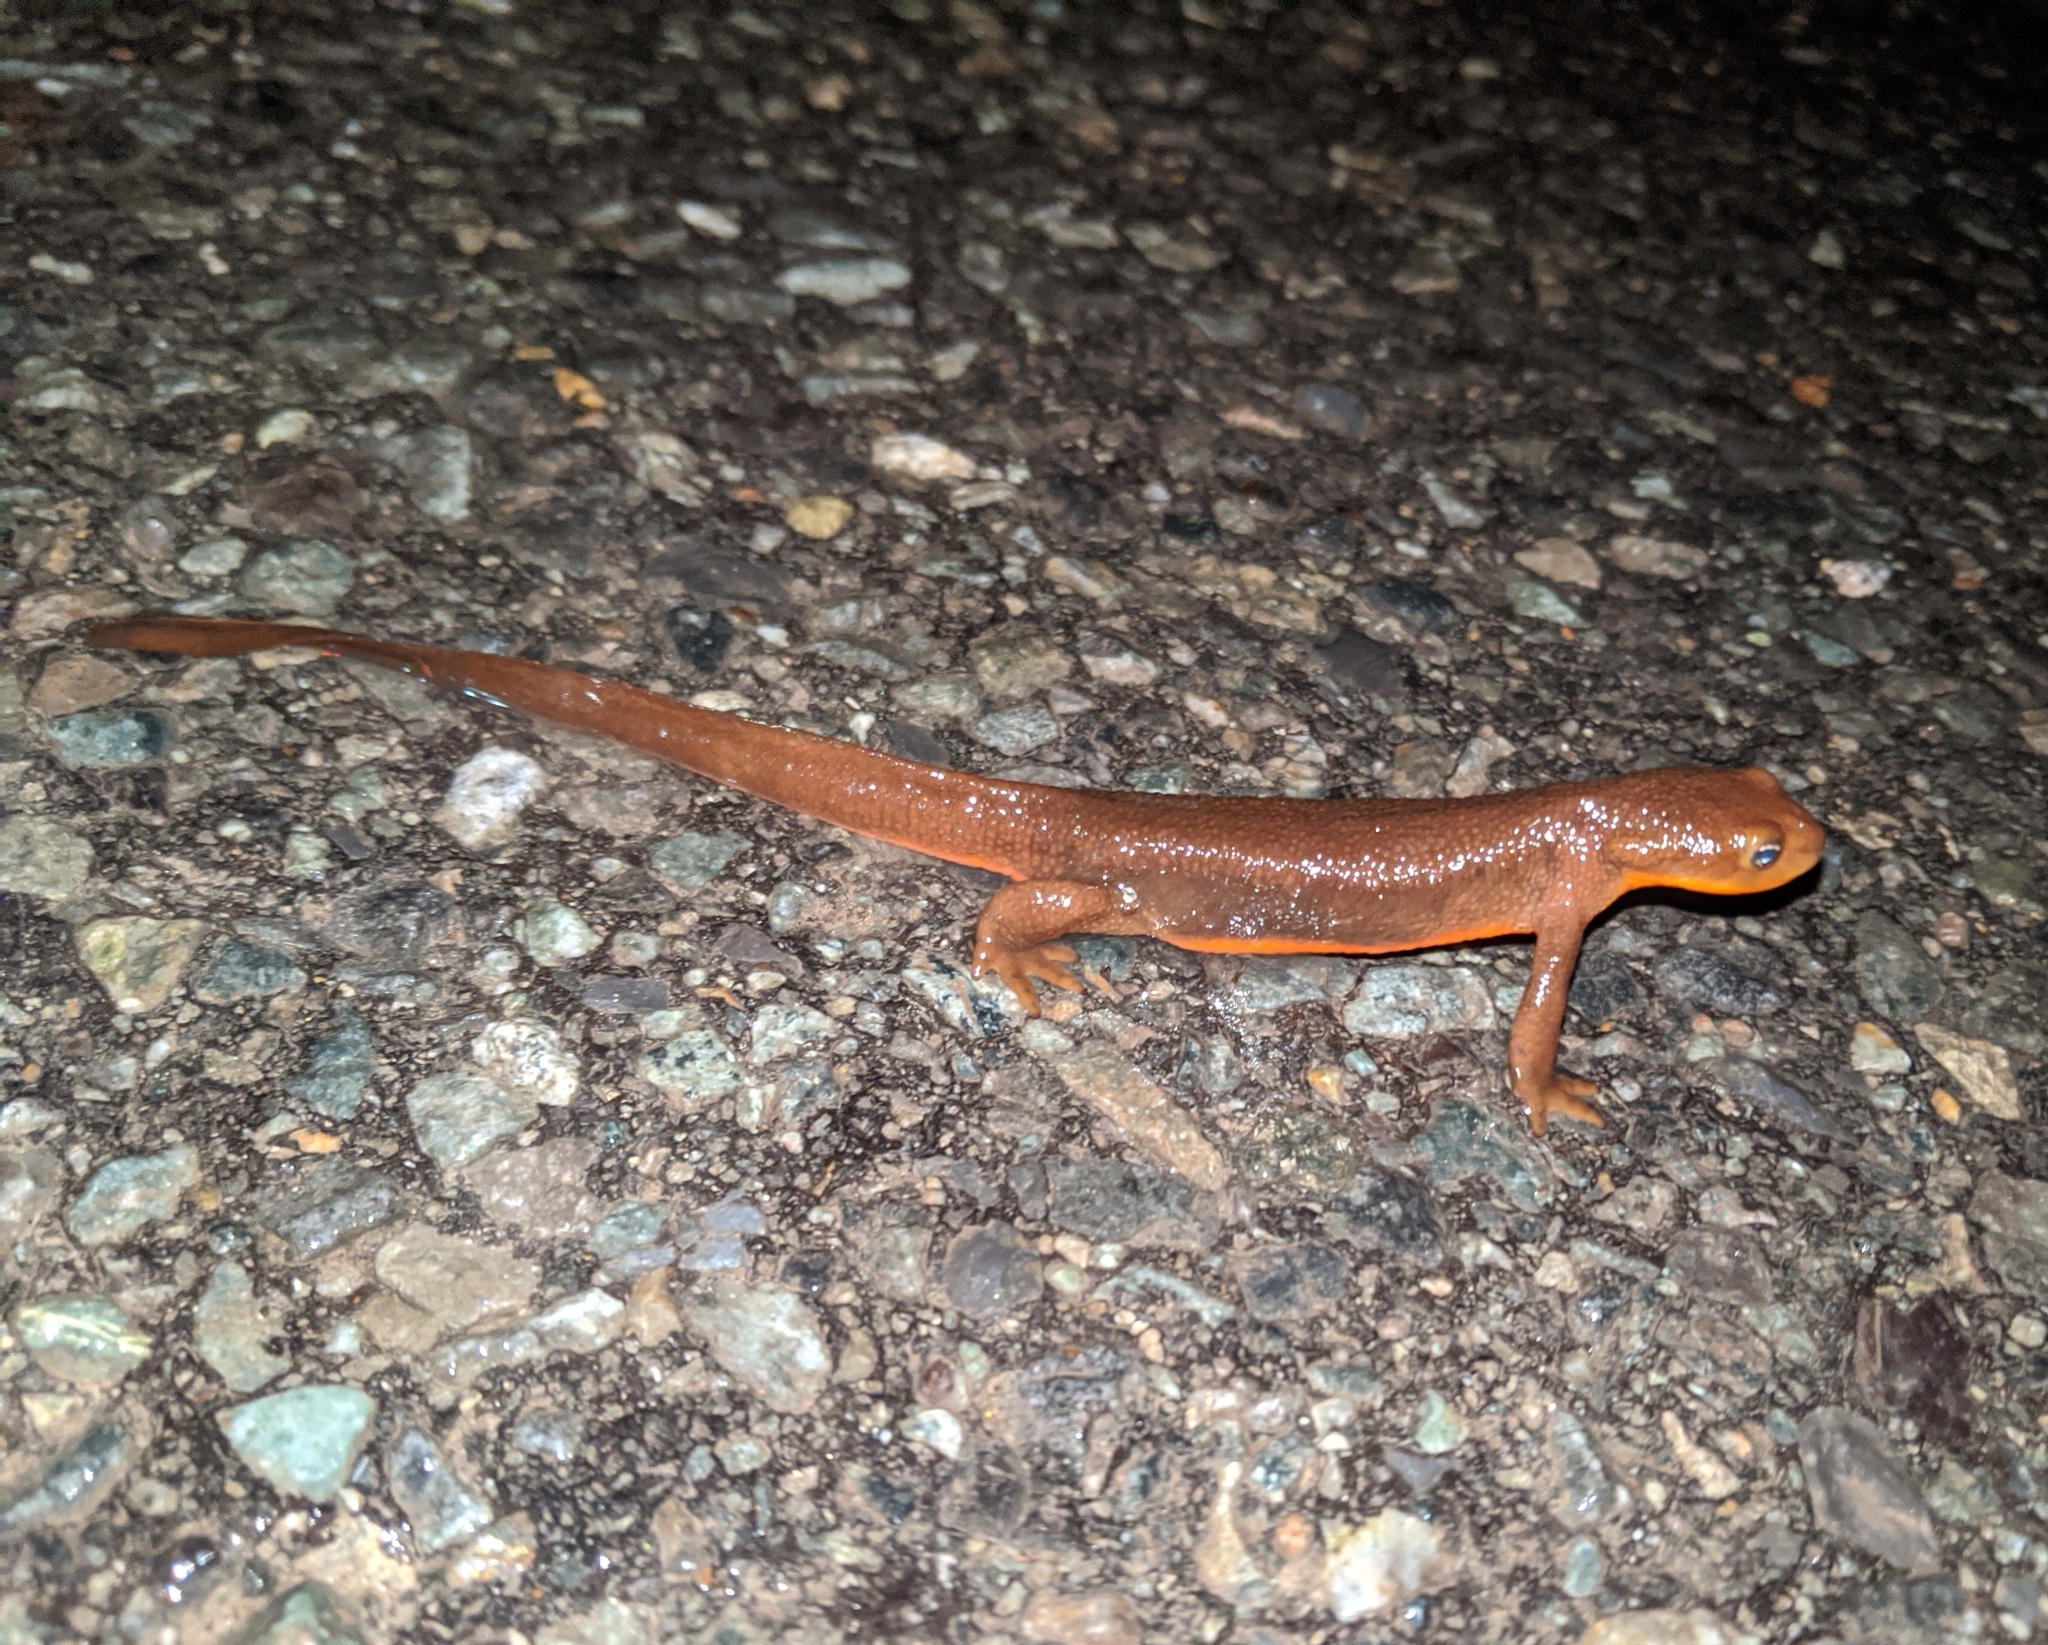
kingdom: Animalia
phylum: Chordata
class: Amphibia
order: Caudata
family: Salamandridae
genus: Taricha
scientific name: Taricha granulosa
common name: Roughskin newt
